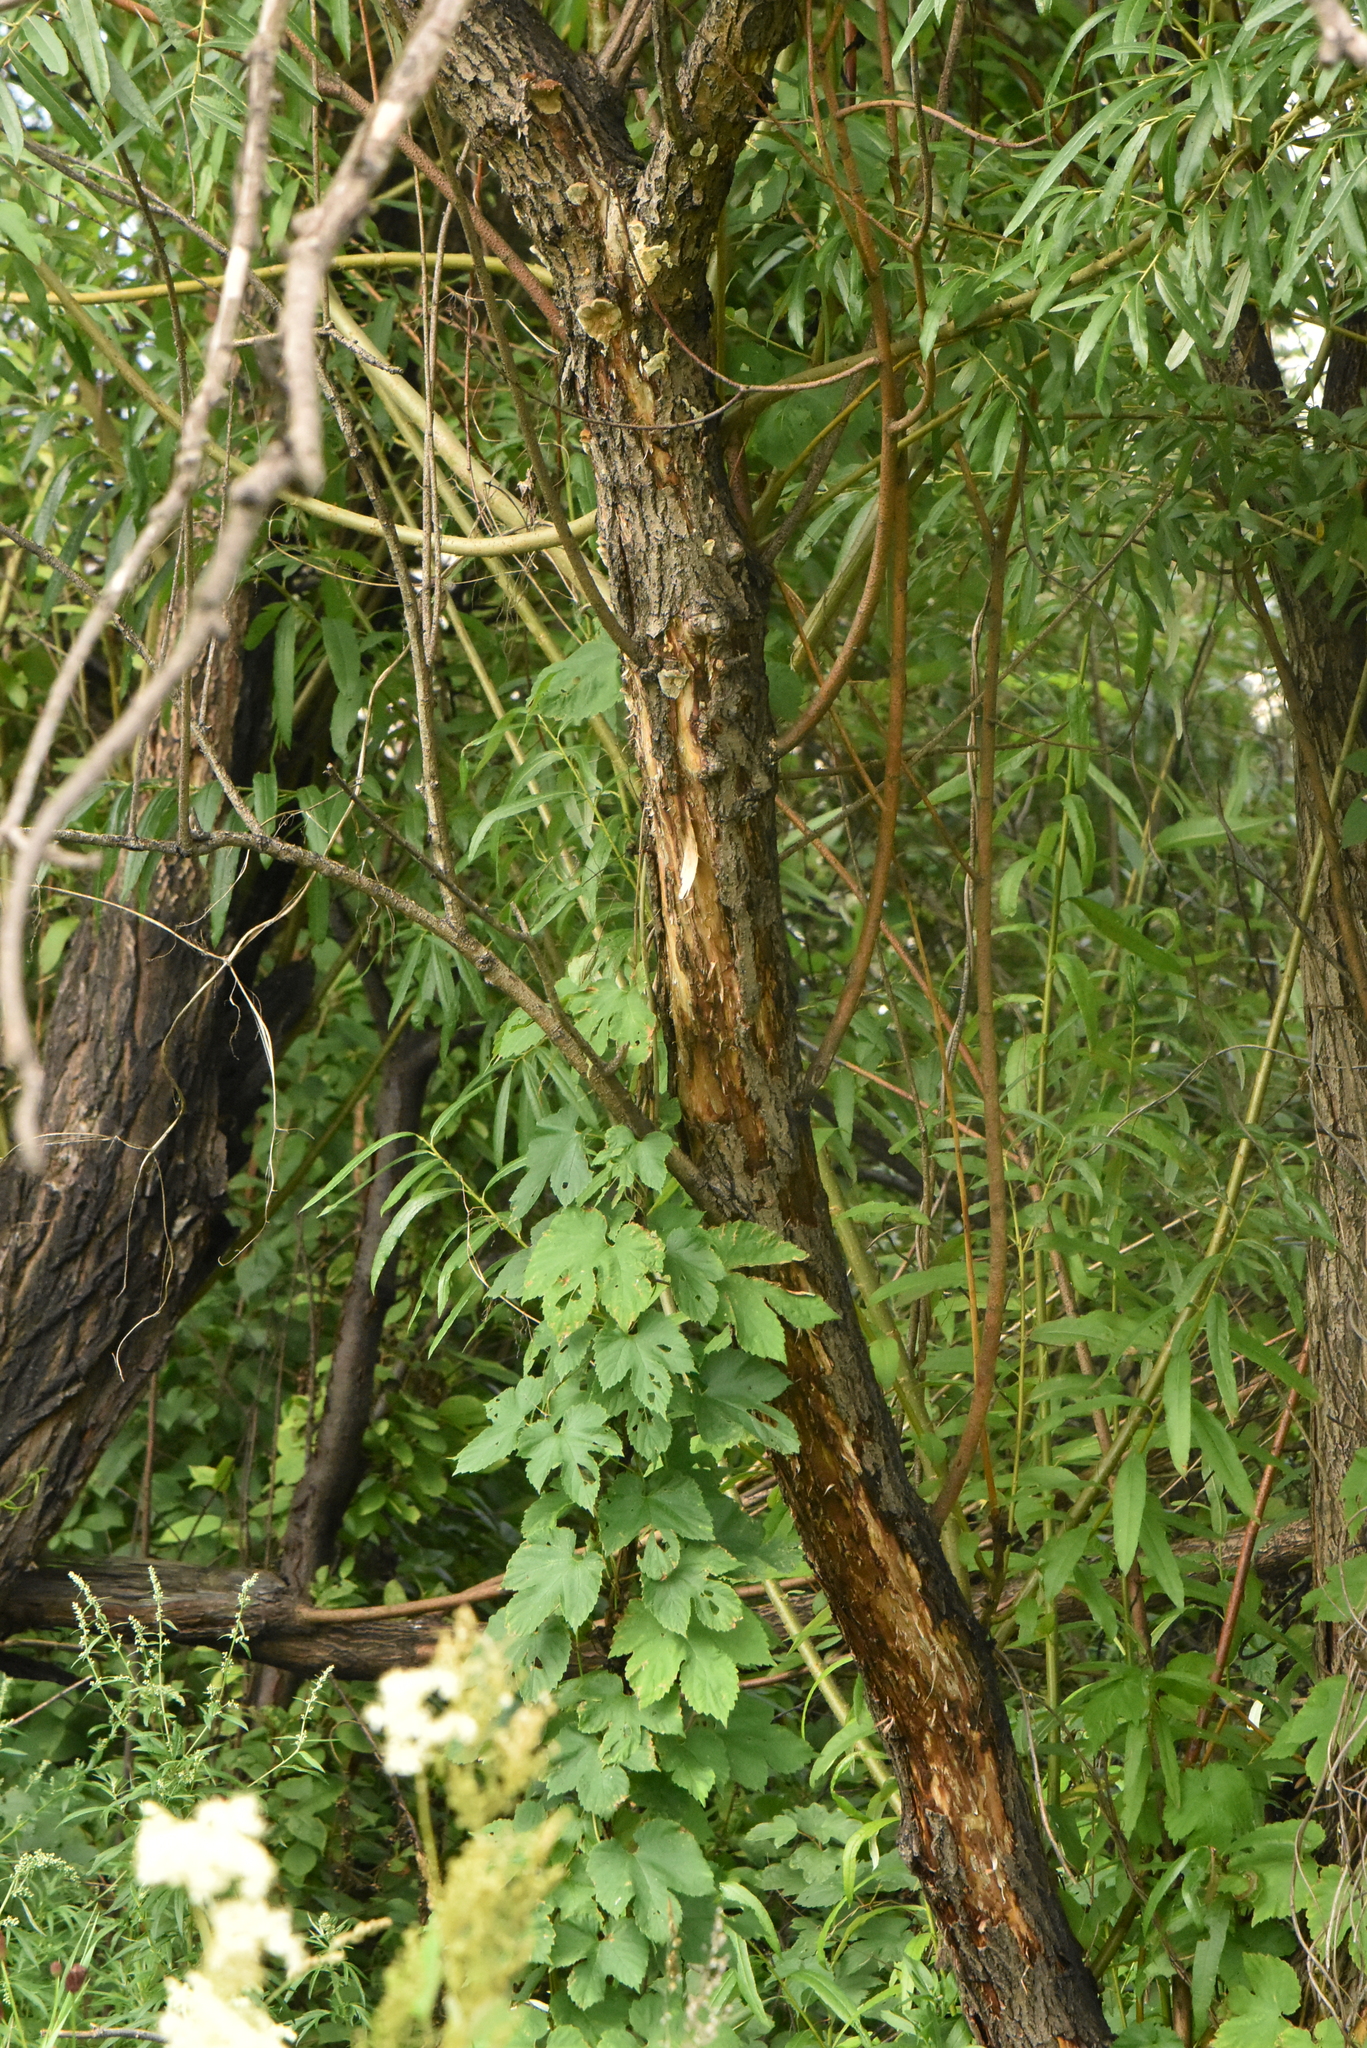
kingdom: Plantae
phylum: Tracheophyta
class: Magnoliopsida
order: Rosales
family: Cannabaceae
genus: Humulus
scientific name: Humulus lupulus
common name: Hop
